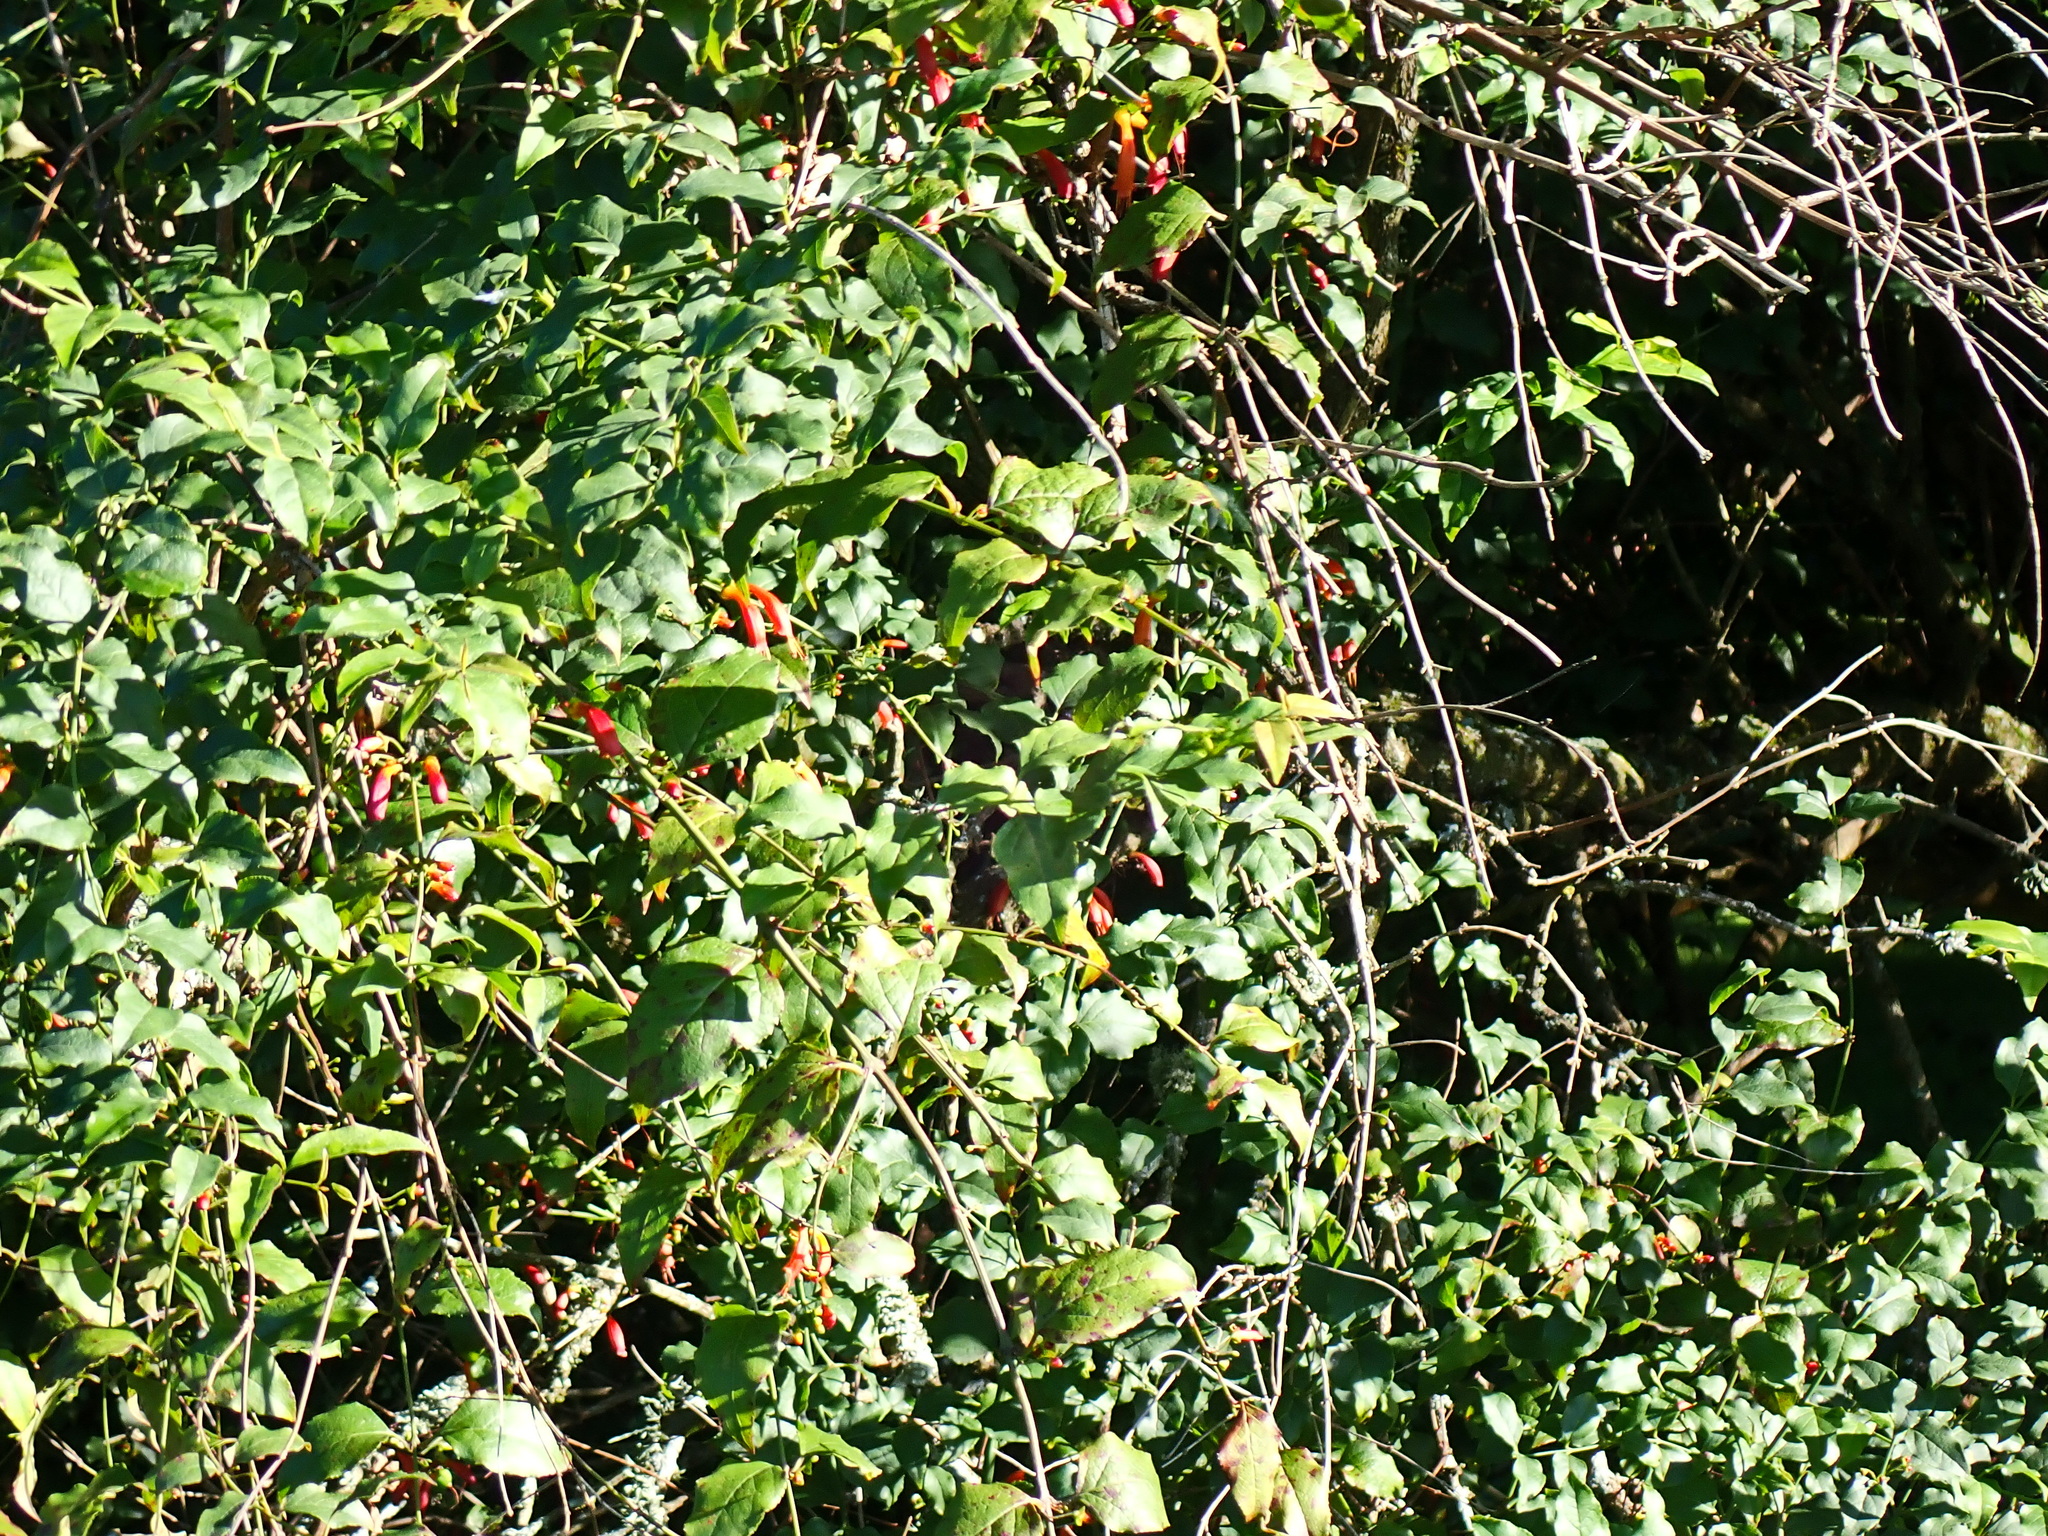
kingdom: Plantae
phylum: Tracheophyta
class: Magnoliopsida
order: Lamiales
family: Stilbaceae
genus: Halleria
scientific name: Halleria lucida
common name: Tree fuschia
